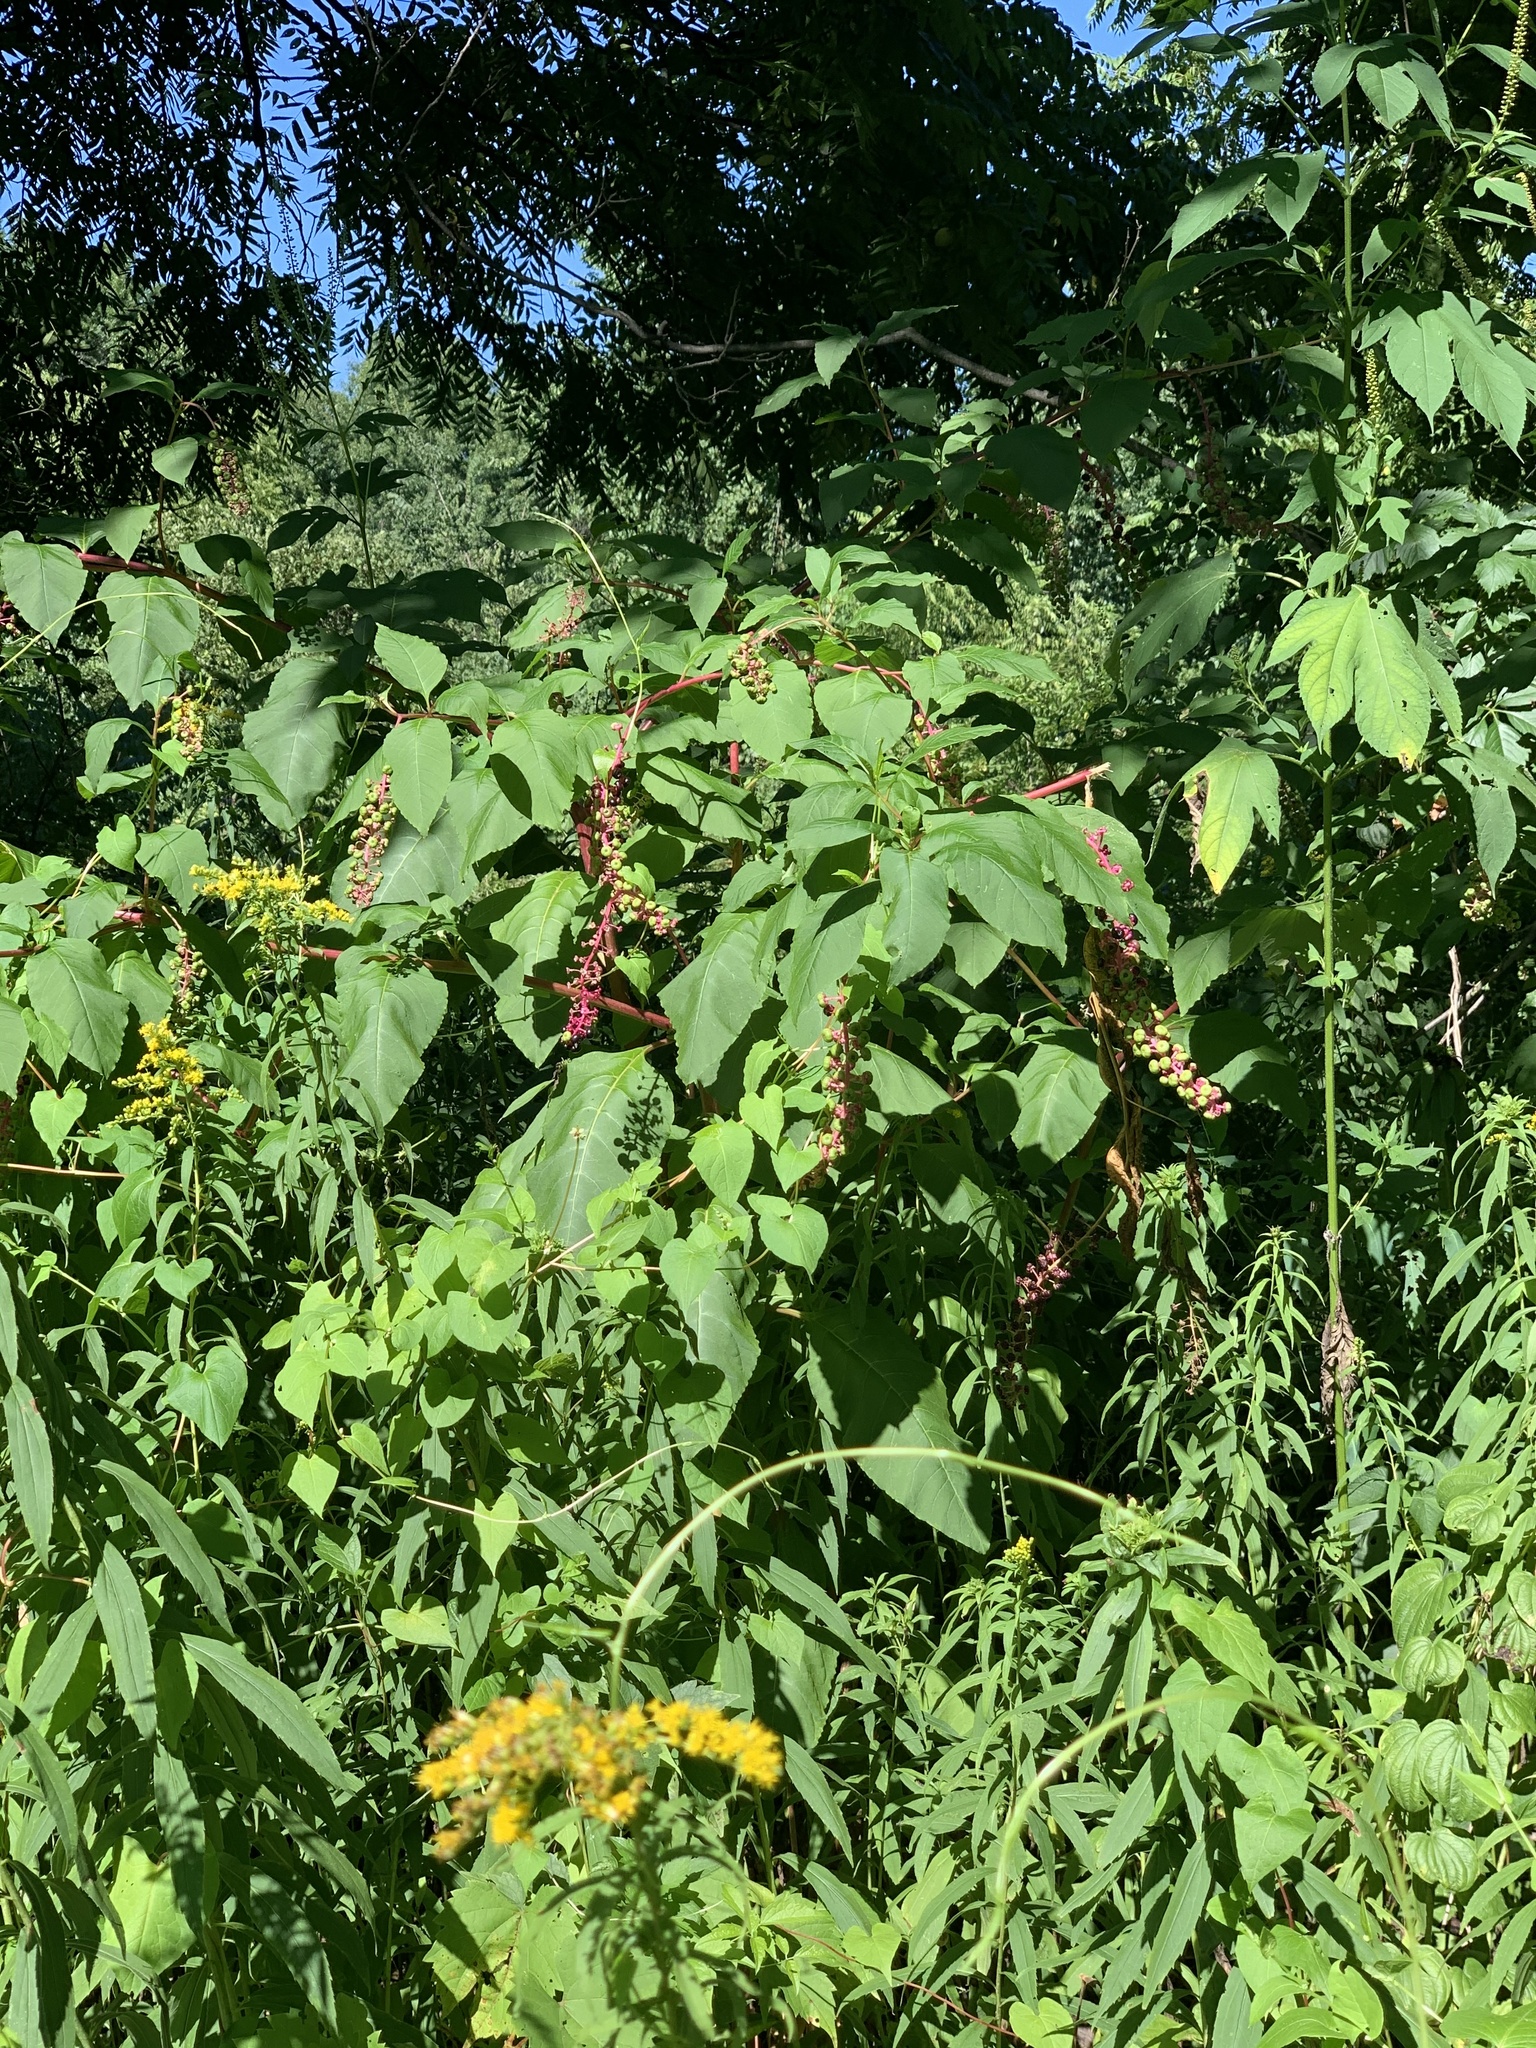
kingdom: Plantae
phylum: Tracheophyta
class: Magnoliopsida
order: Caryophyllales
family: Phytolaccaceae
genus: Phytolacca
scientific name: Phytolacca americana
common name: American pokeweed
